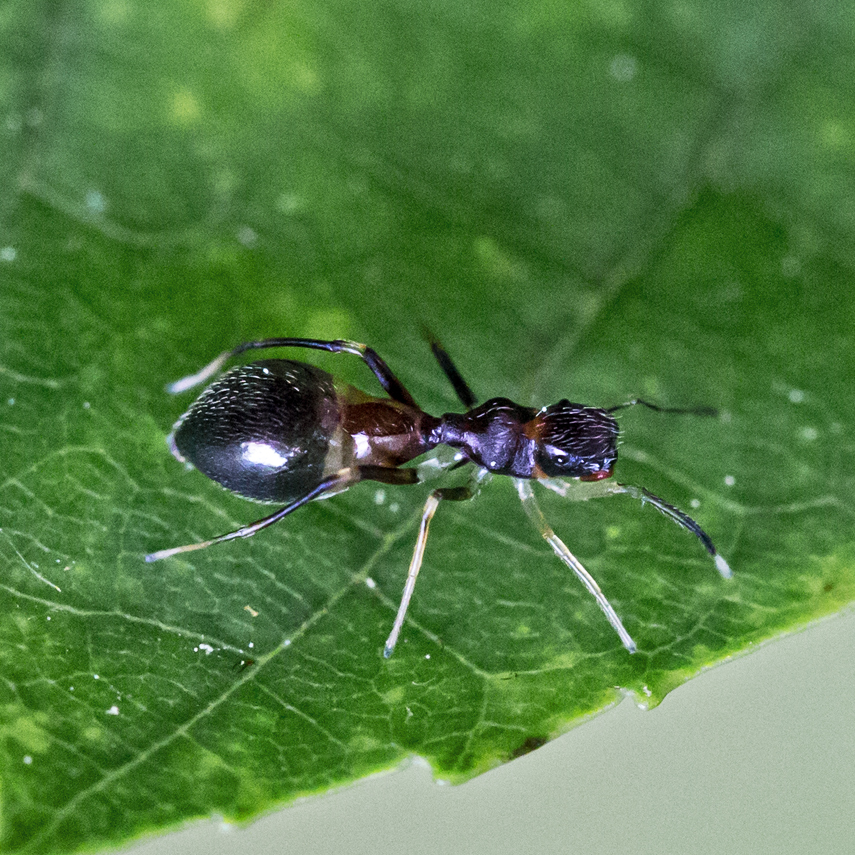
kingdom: Animalia
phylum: Arthropoda
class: Arachnida
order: Araneae
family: Salticidae
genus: Synemosyna
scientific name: Synemosyna formica
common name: Slender ant-mimic jumping spider
